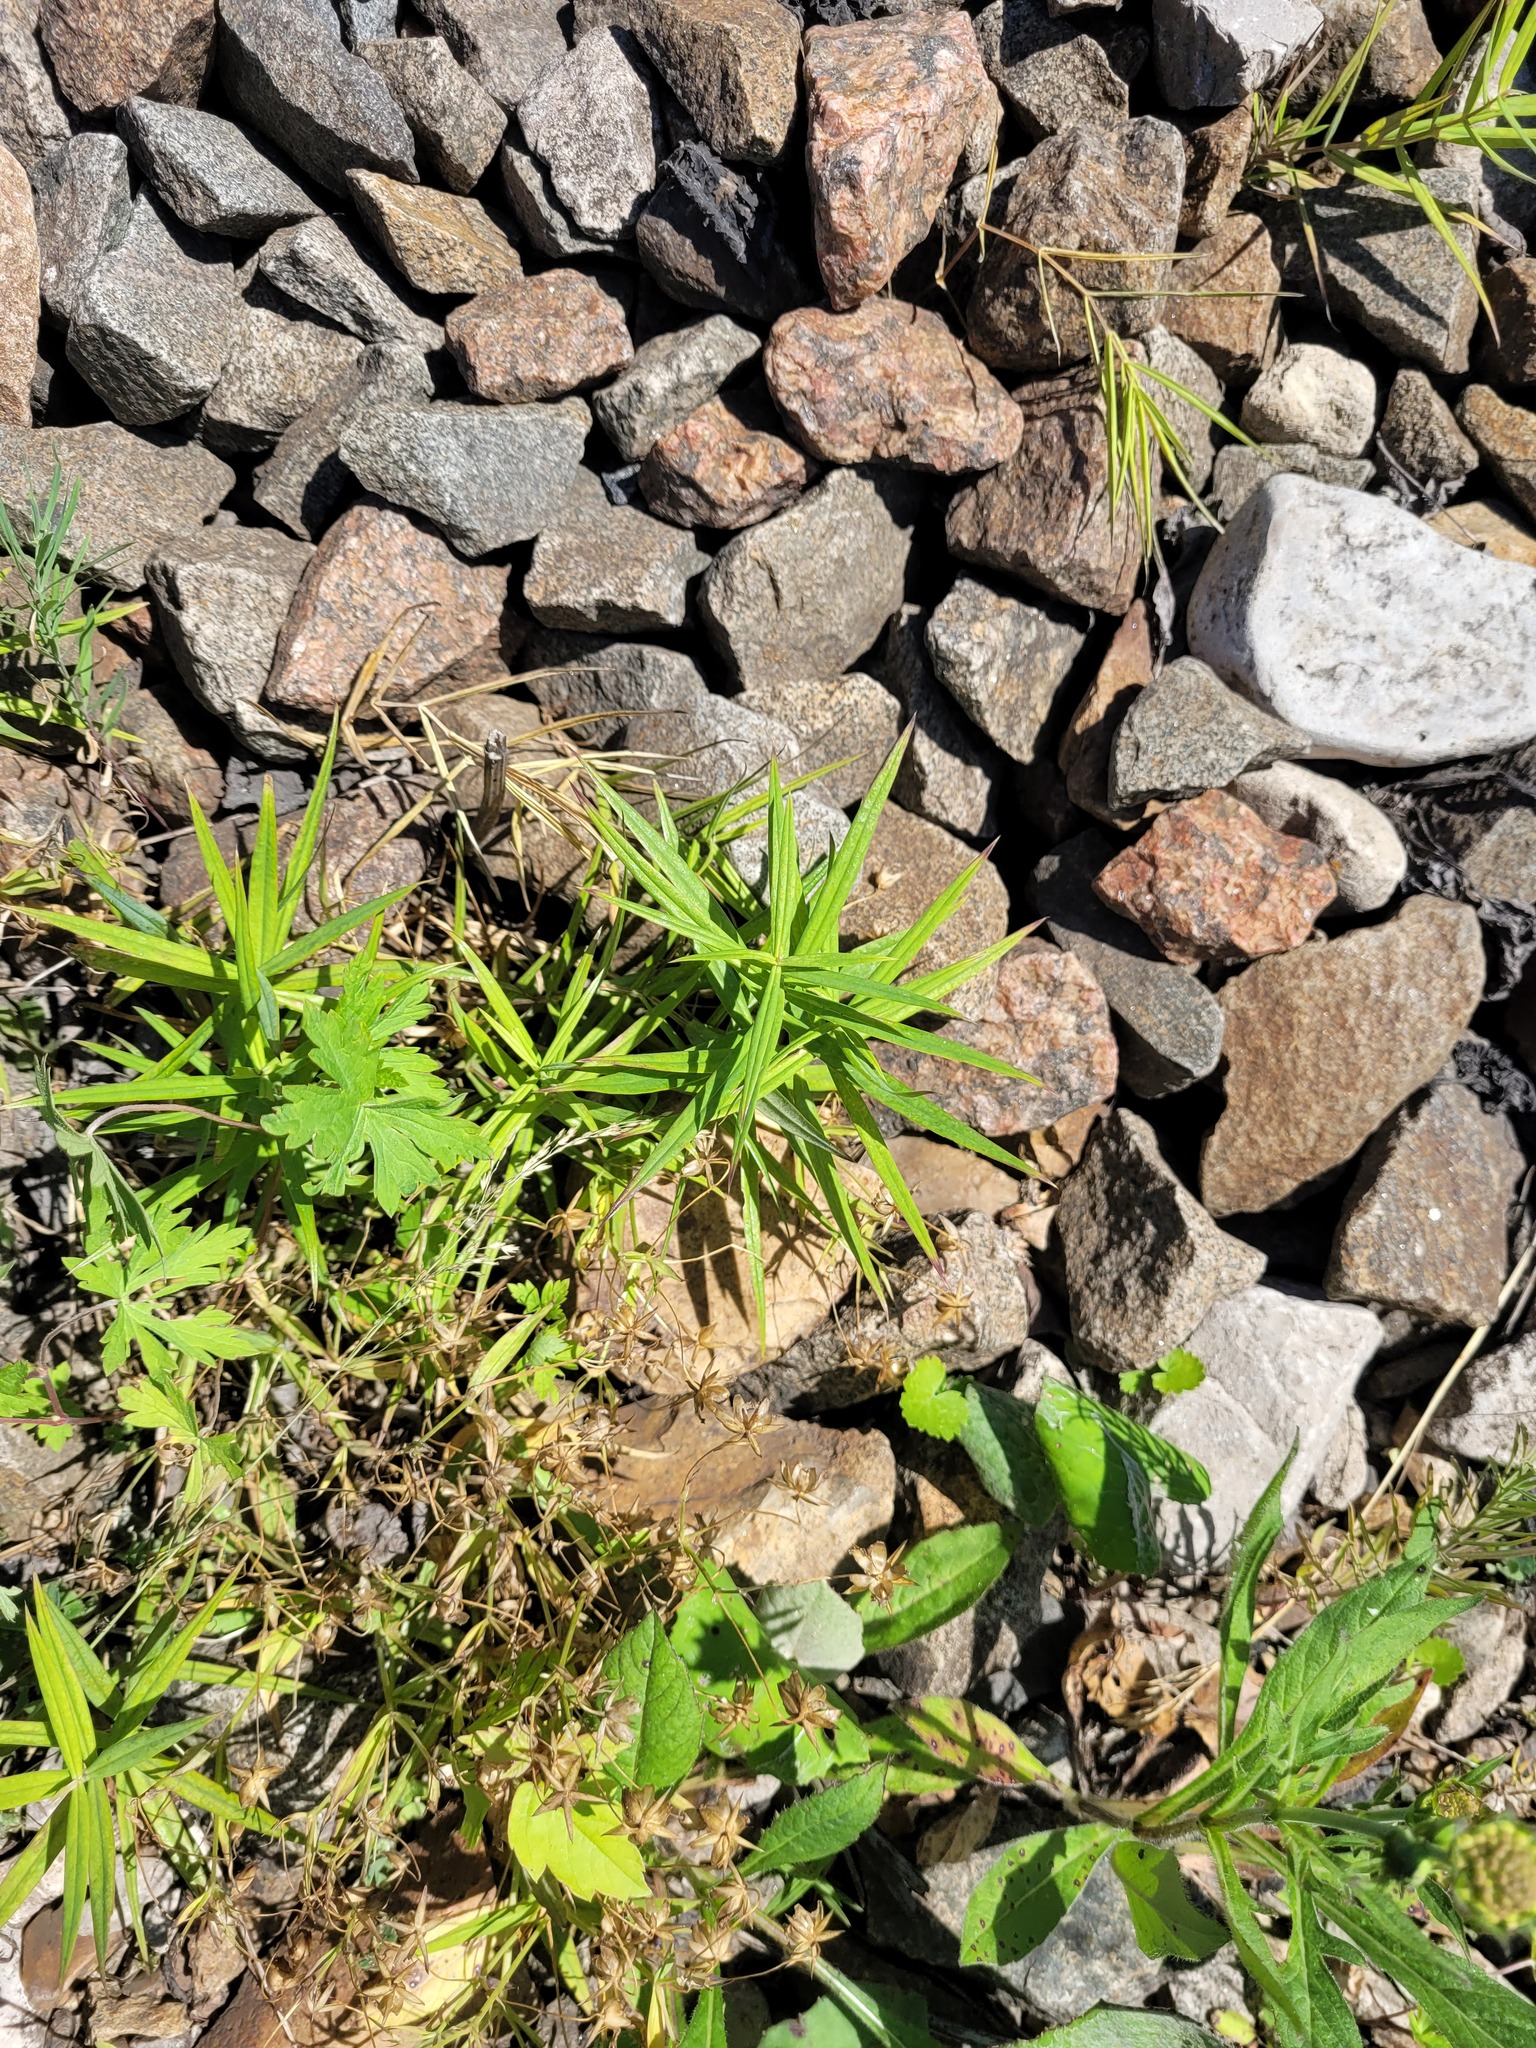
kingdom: Plantae
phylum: Tracheophyta
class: Magnoliopsida
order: Caryophyllales
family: Caryophyllaceae
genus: Rabelera
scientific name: Rabelera holostea
